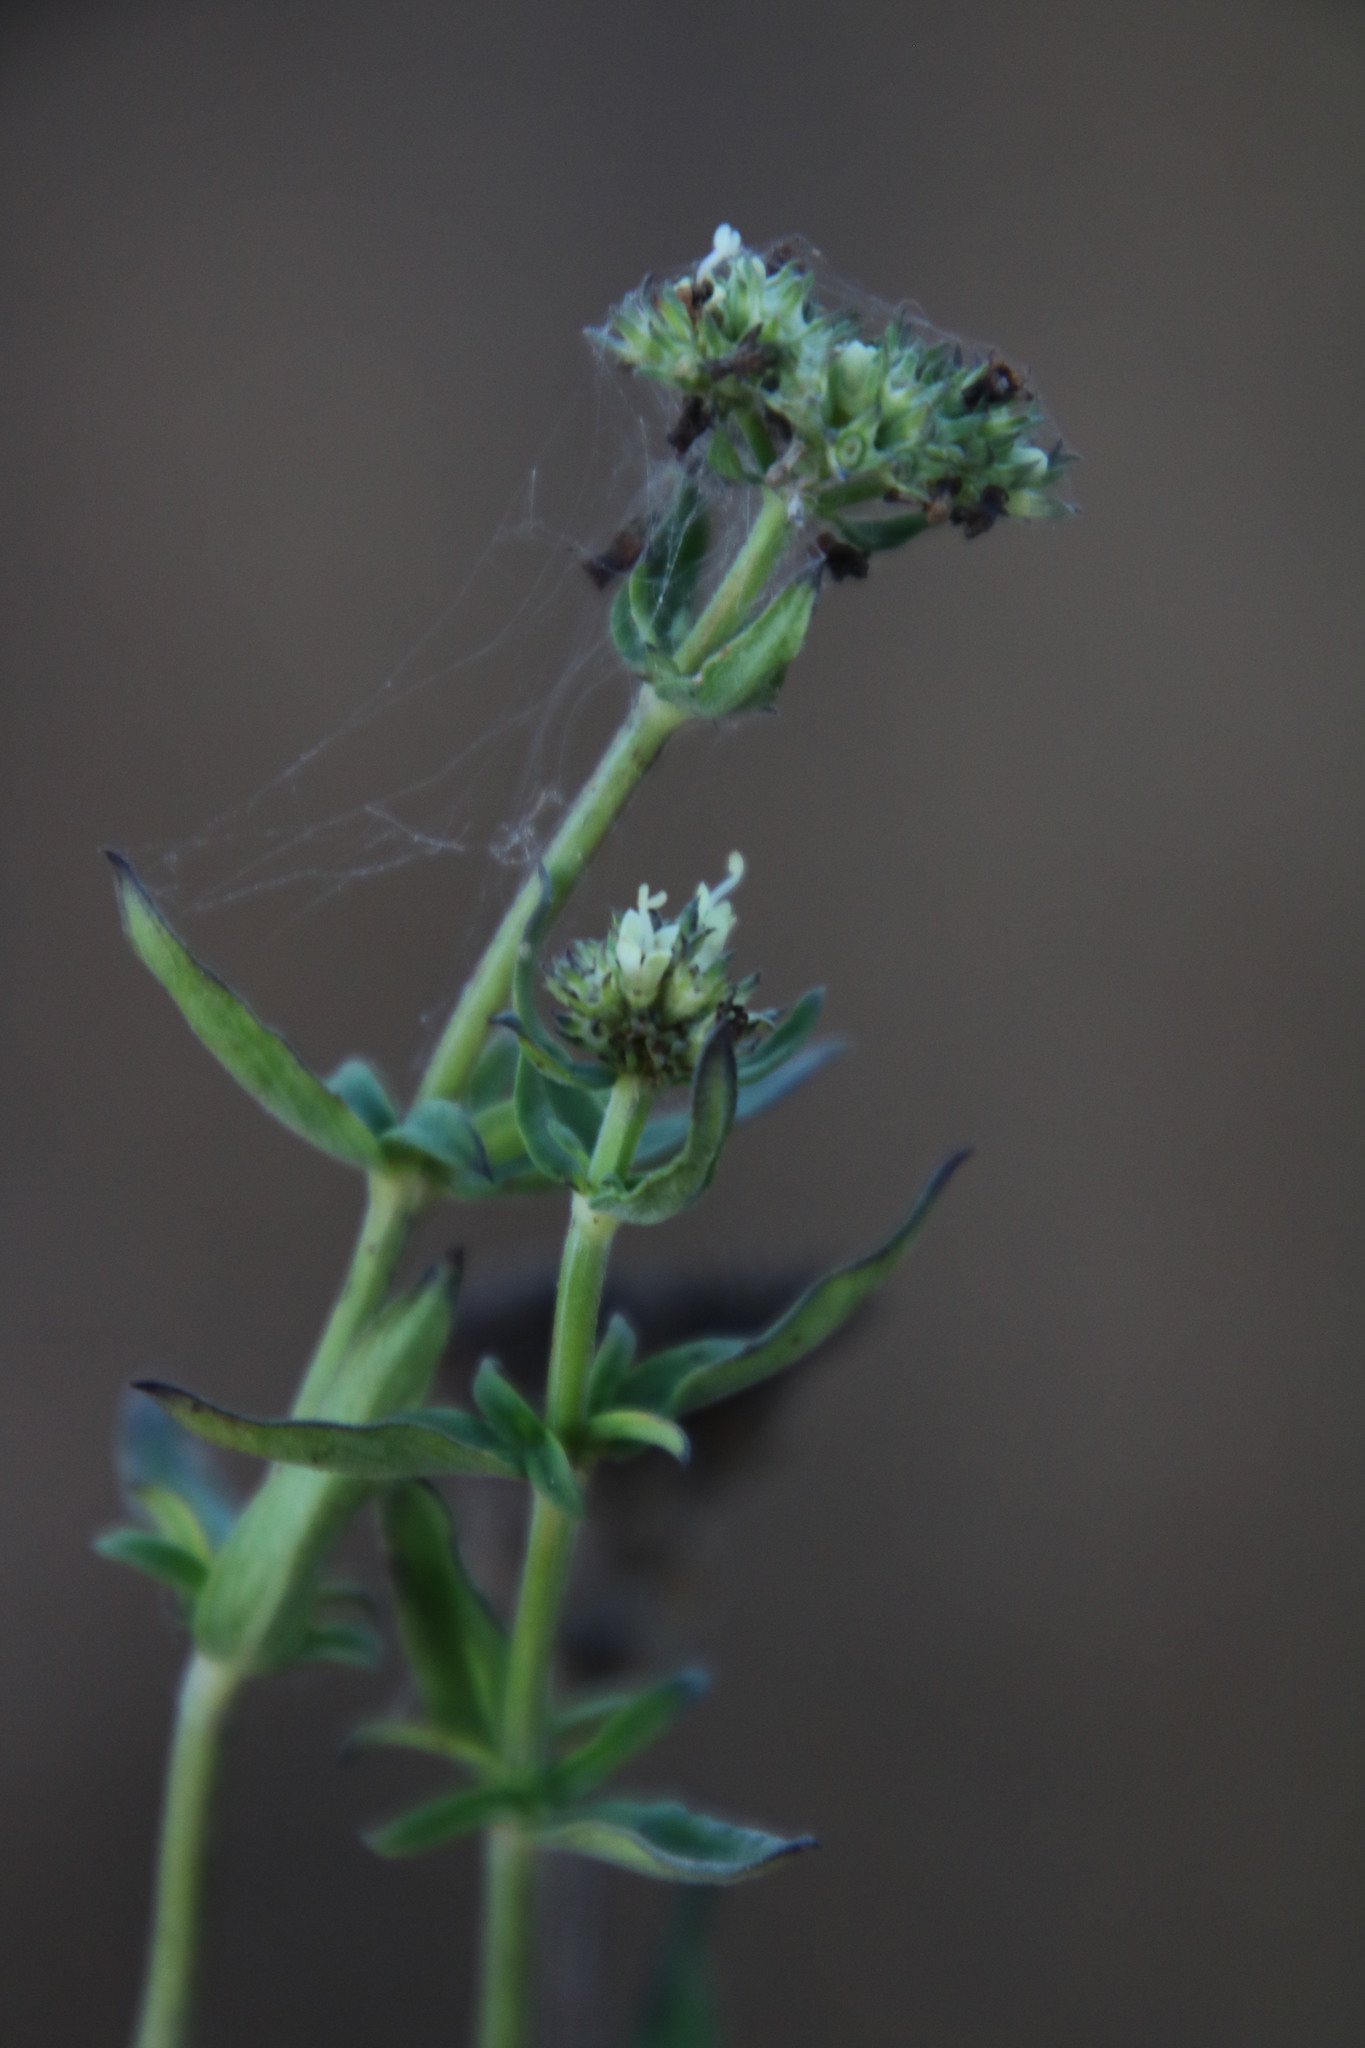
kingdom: Plantae
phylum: Tracheophyta
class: Magnoliopsida
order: Gentianales
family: Rubiaceae
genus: Spermacoce
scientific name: Spermacoce natalensis
